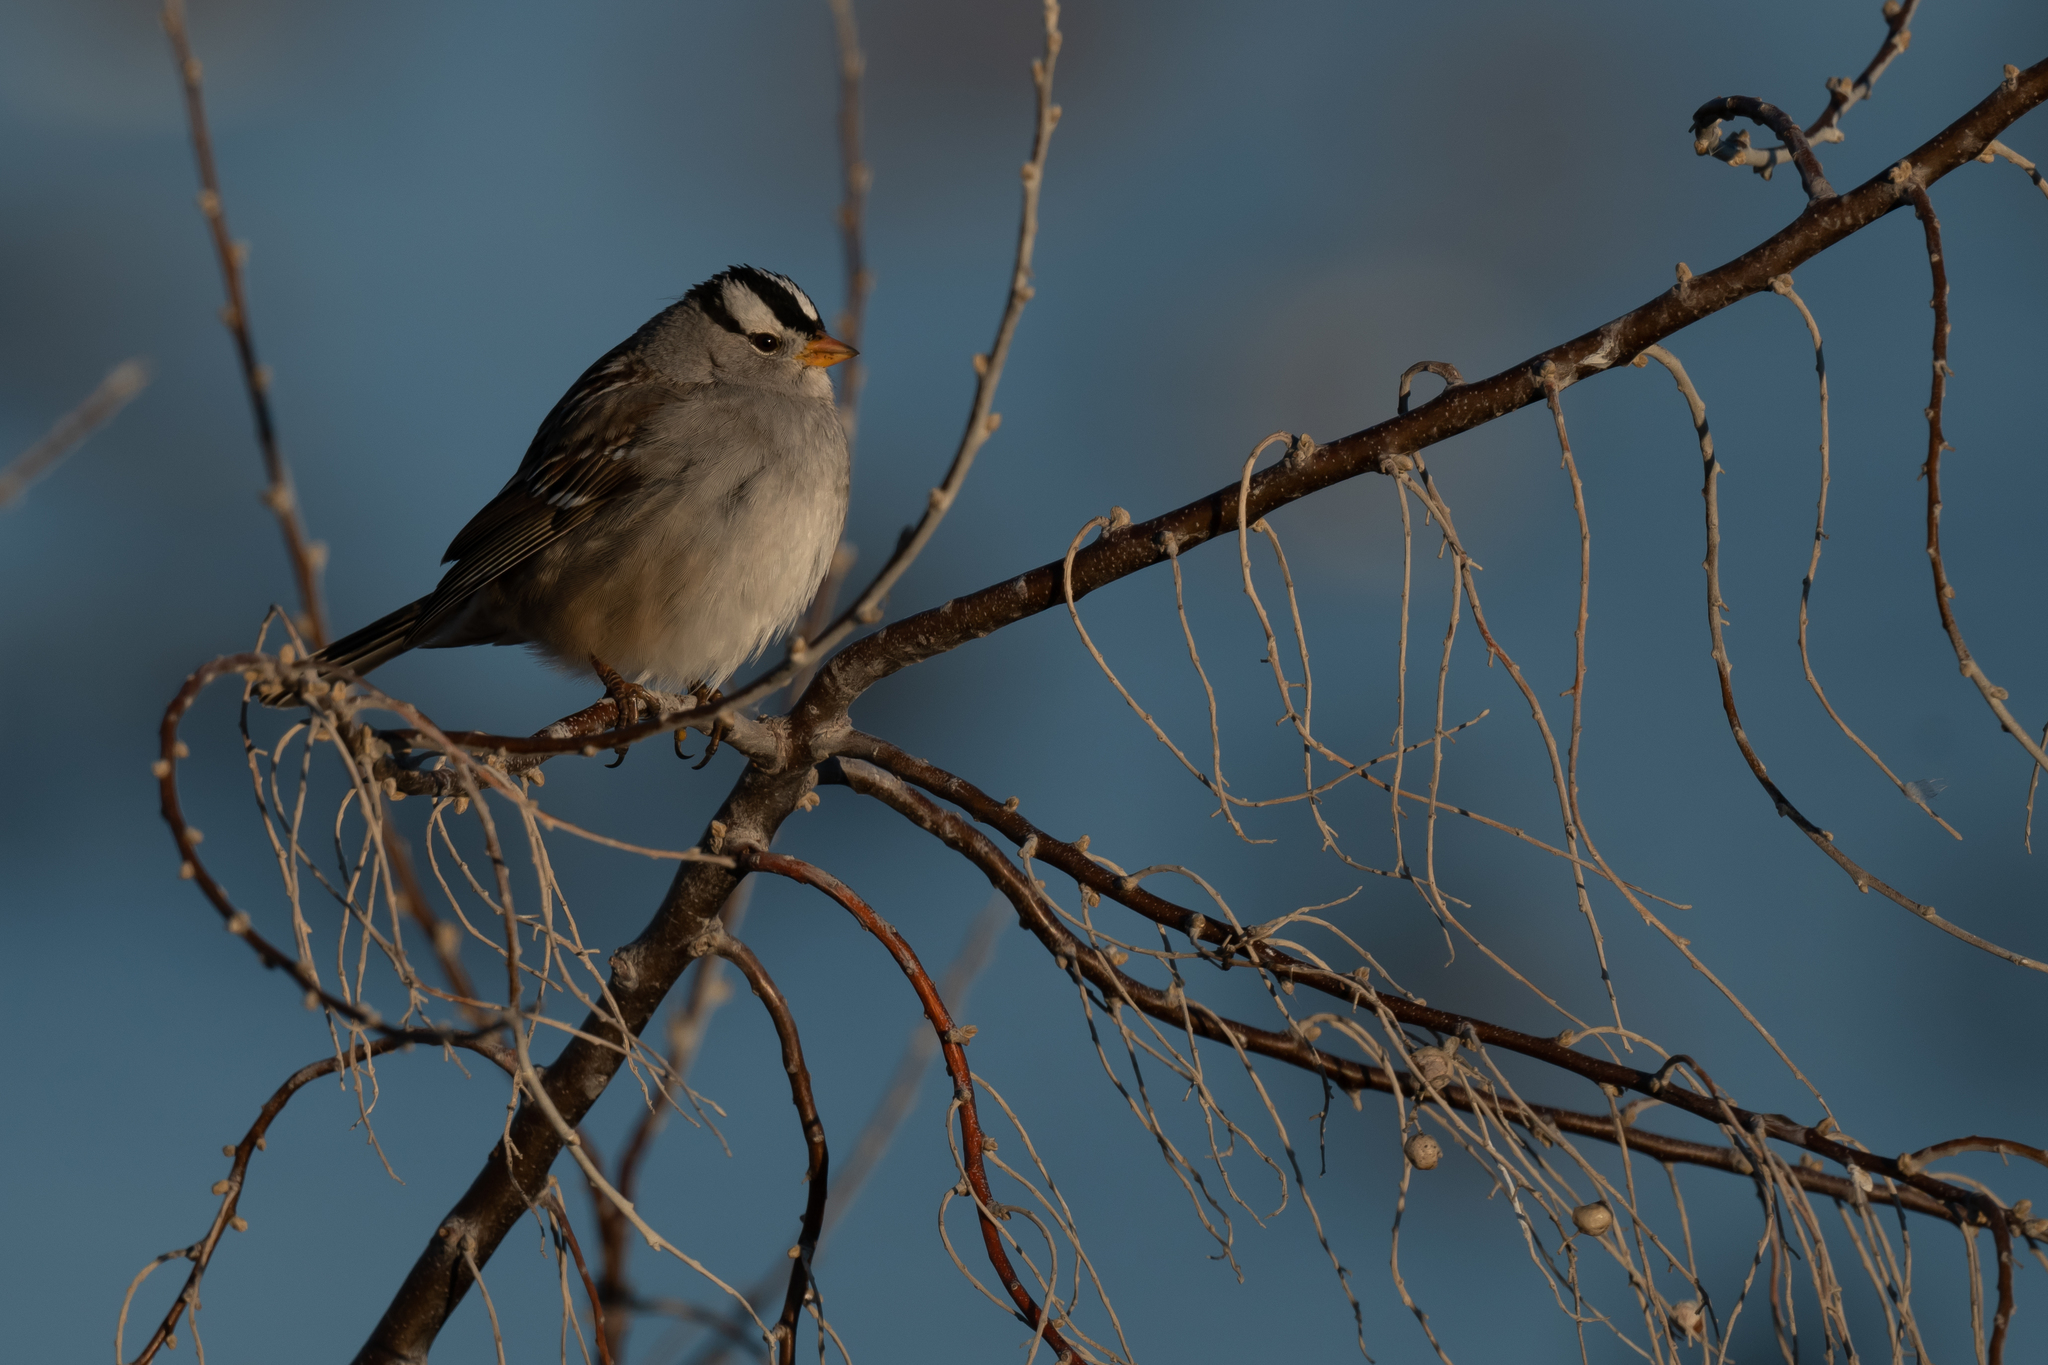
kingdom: Animalia
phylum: Chordata
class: Aves
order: Passeriformes
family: Passerellidae
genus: Zonotrichia
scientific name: Zonotrichia leucophrys
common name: White-crowned sparrow
